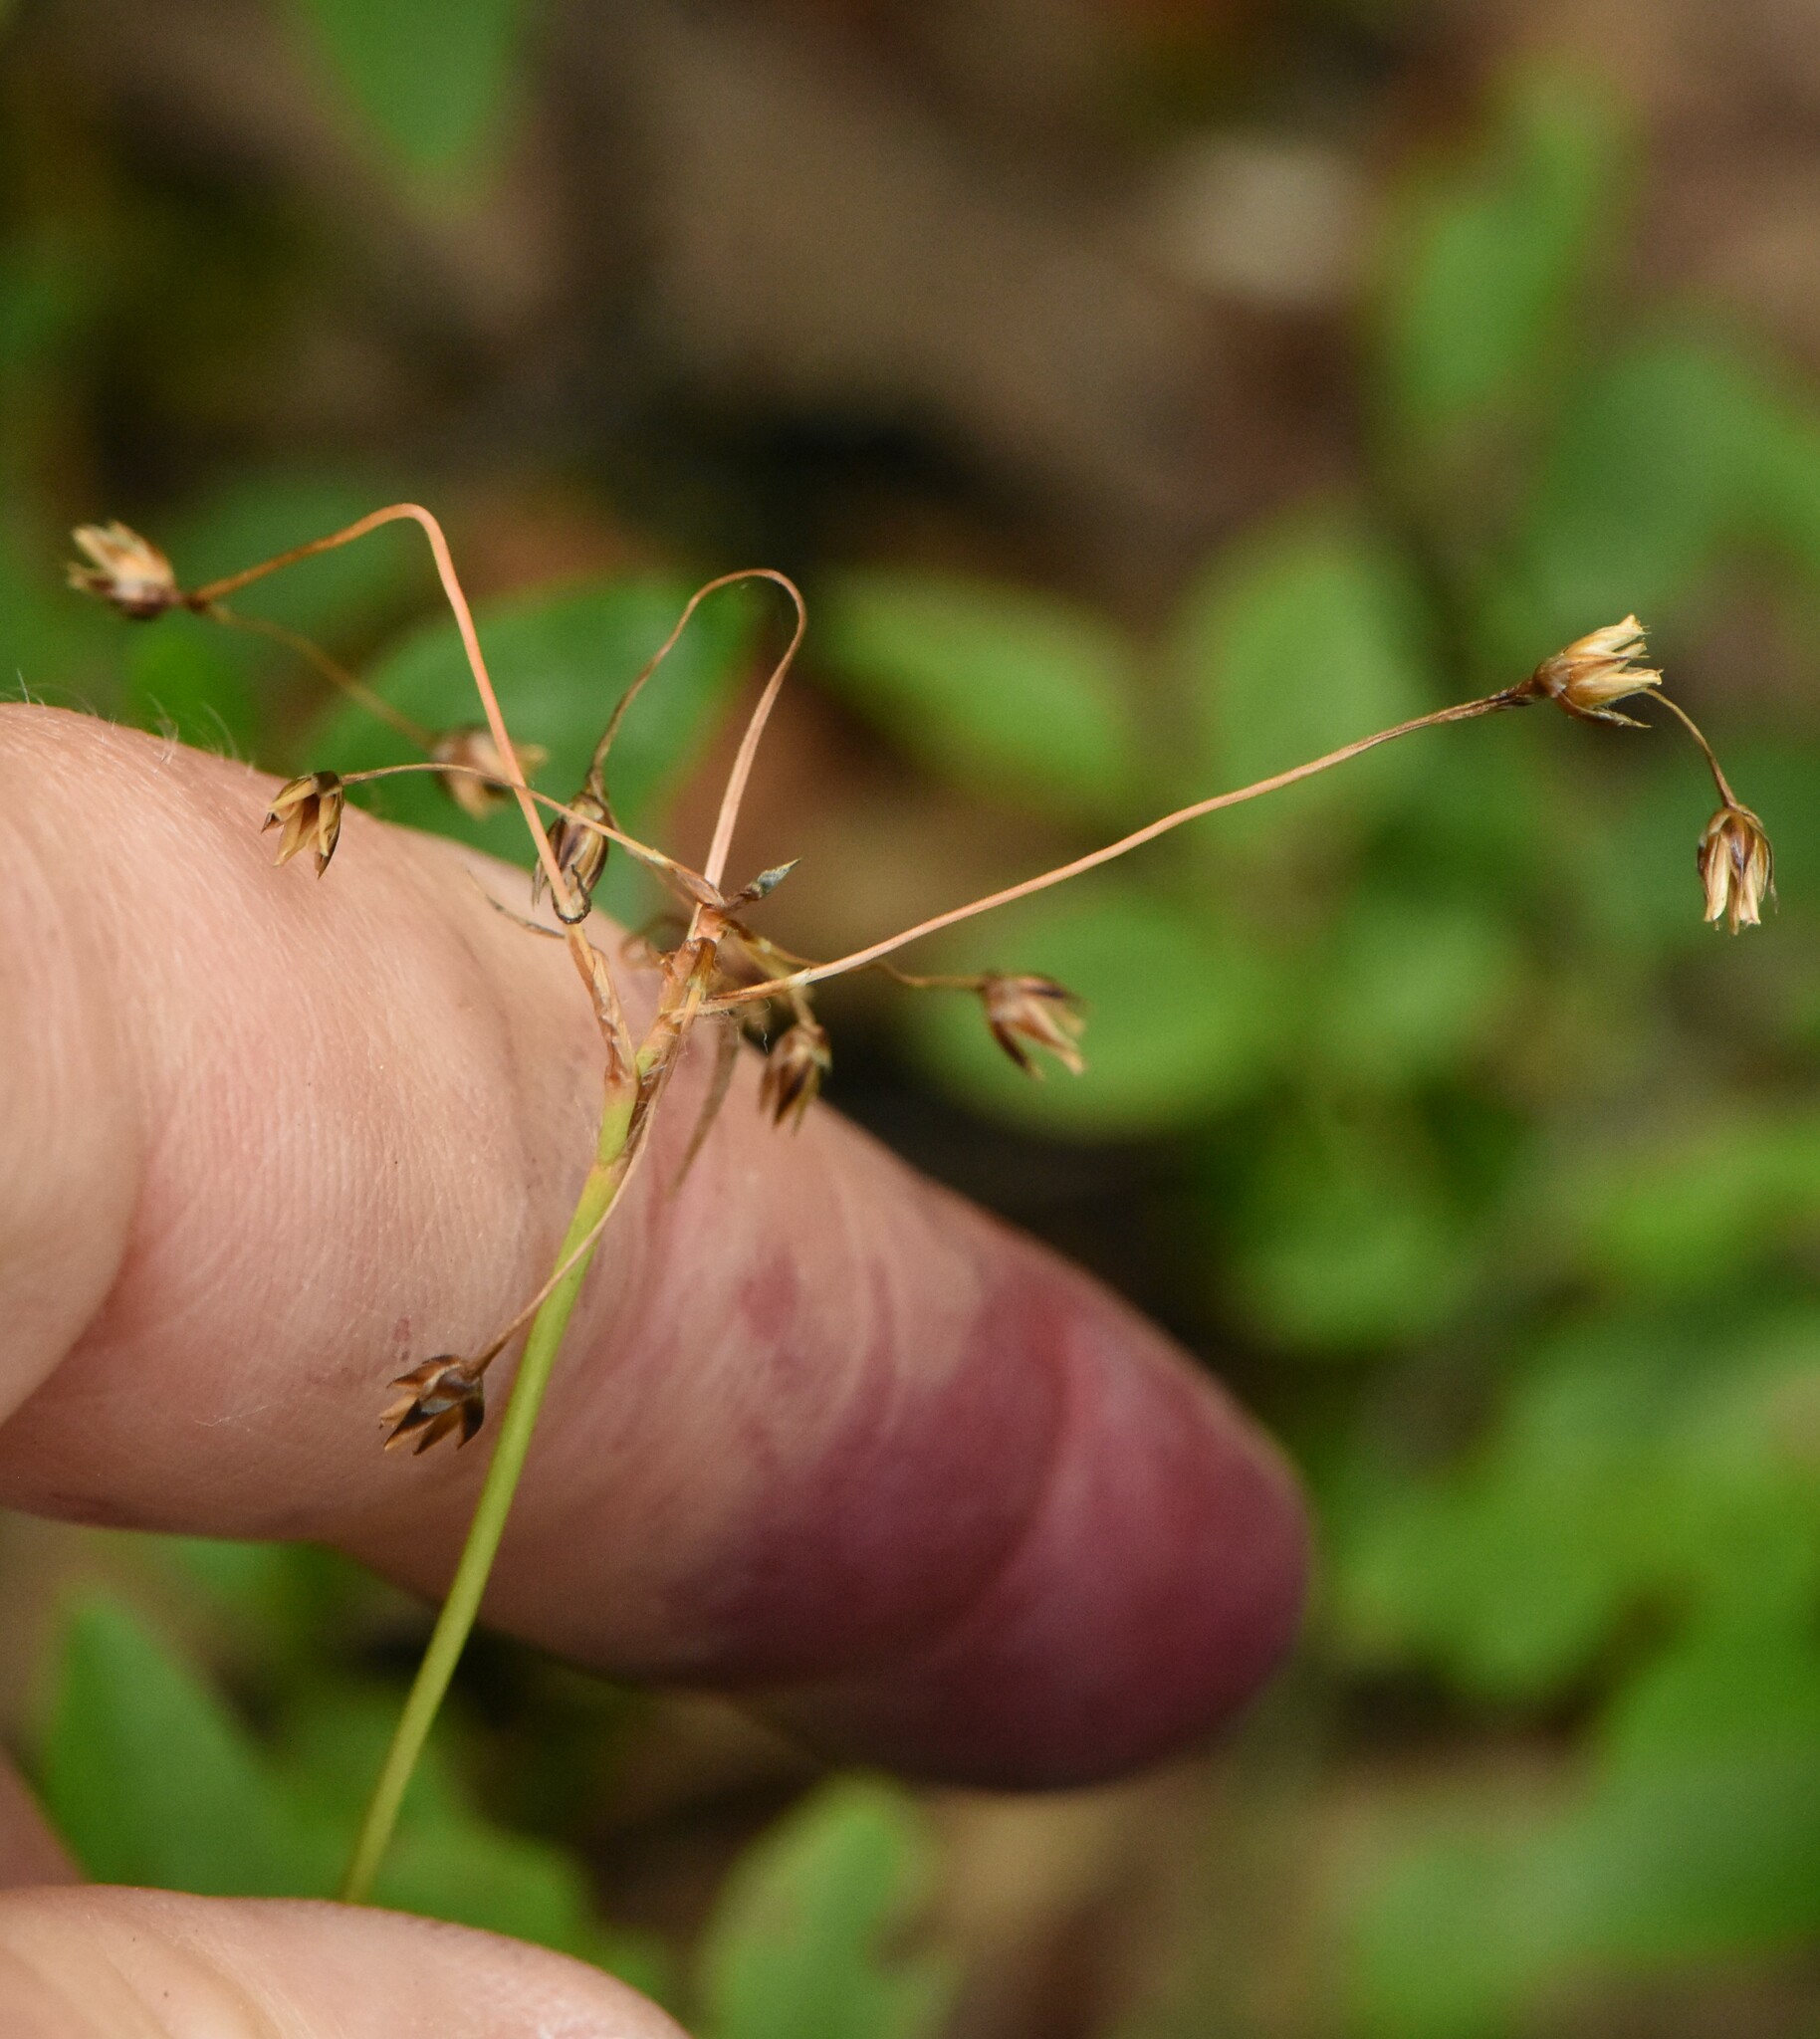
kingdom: Plantae
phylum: Tracheophyta
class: Liliopsida
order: Poales
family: Juncaceae
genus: Luzula
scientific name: Luzula pilosa
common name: Hairy wood-rush
